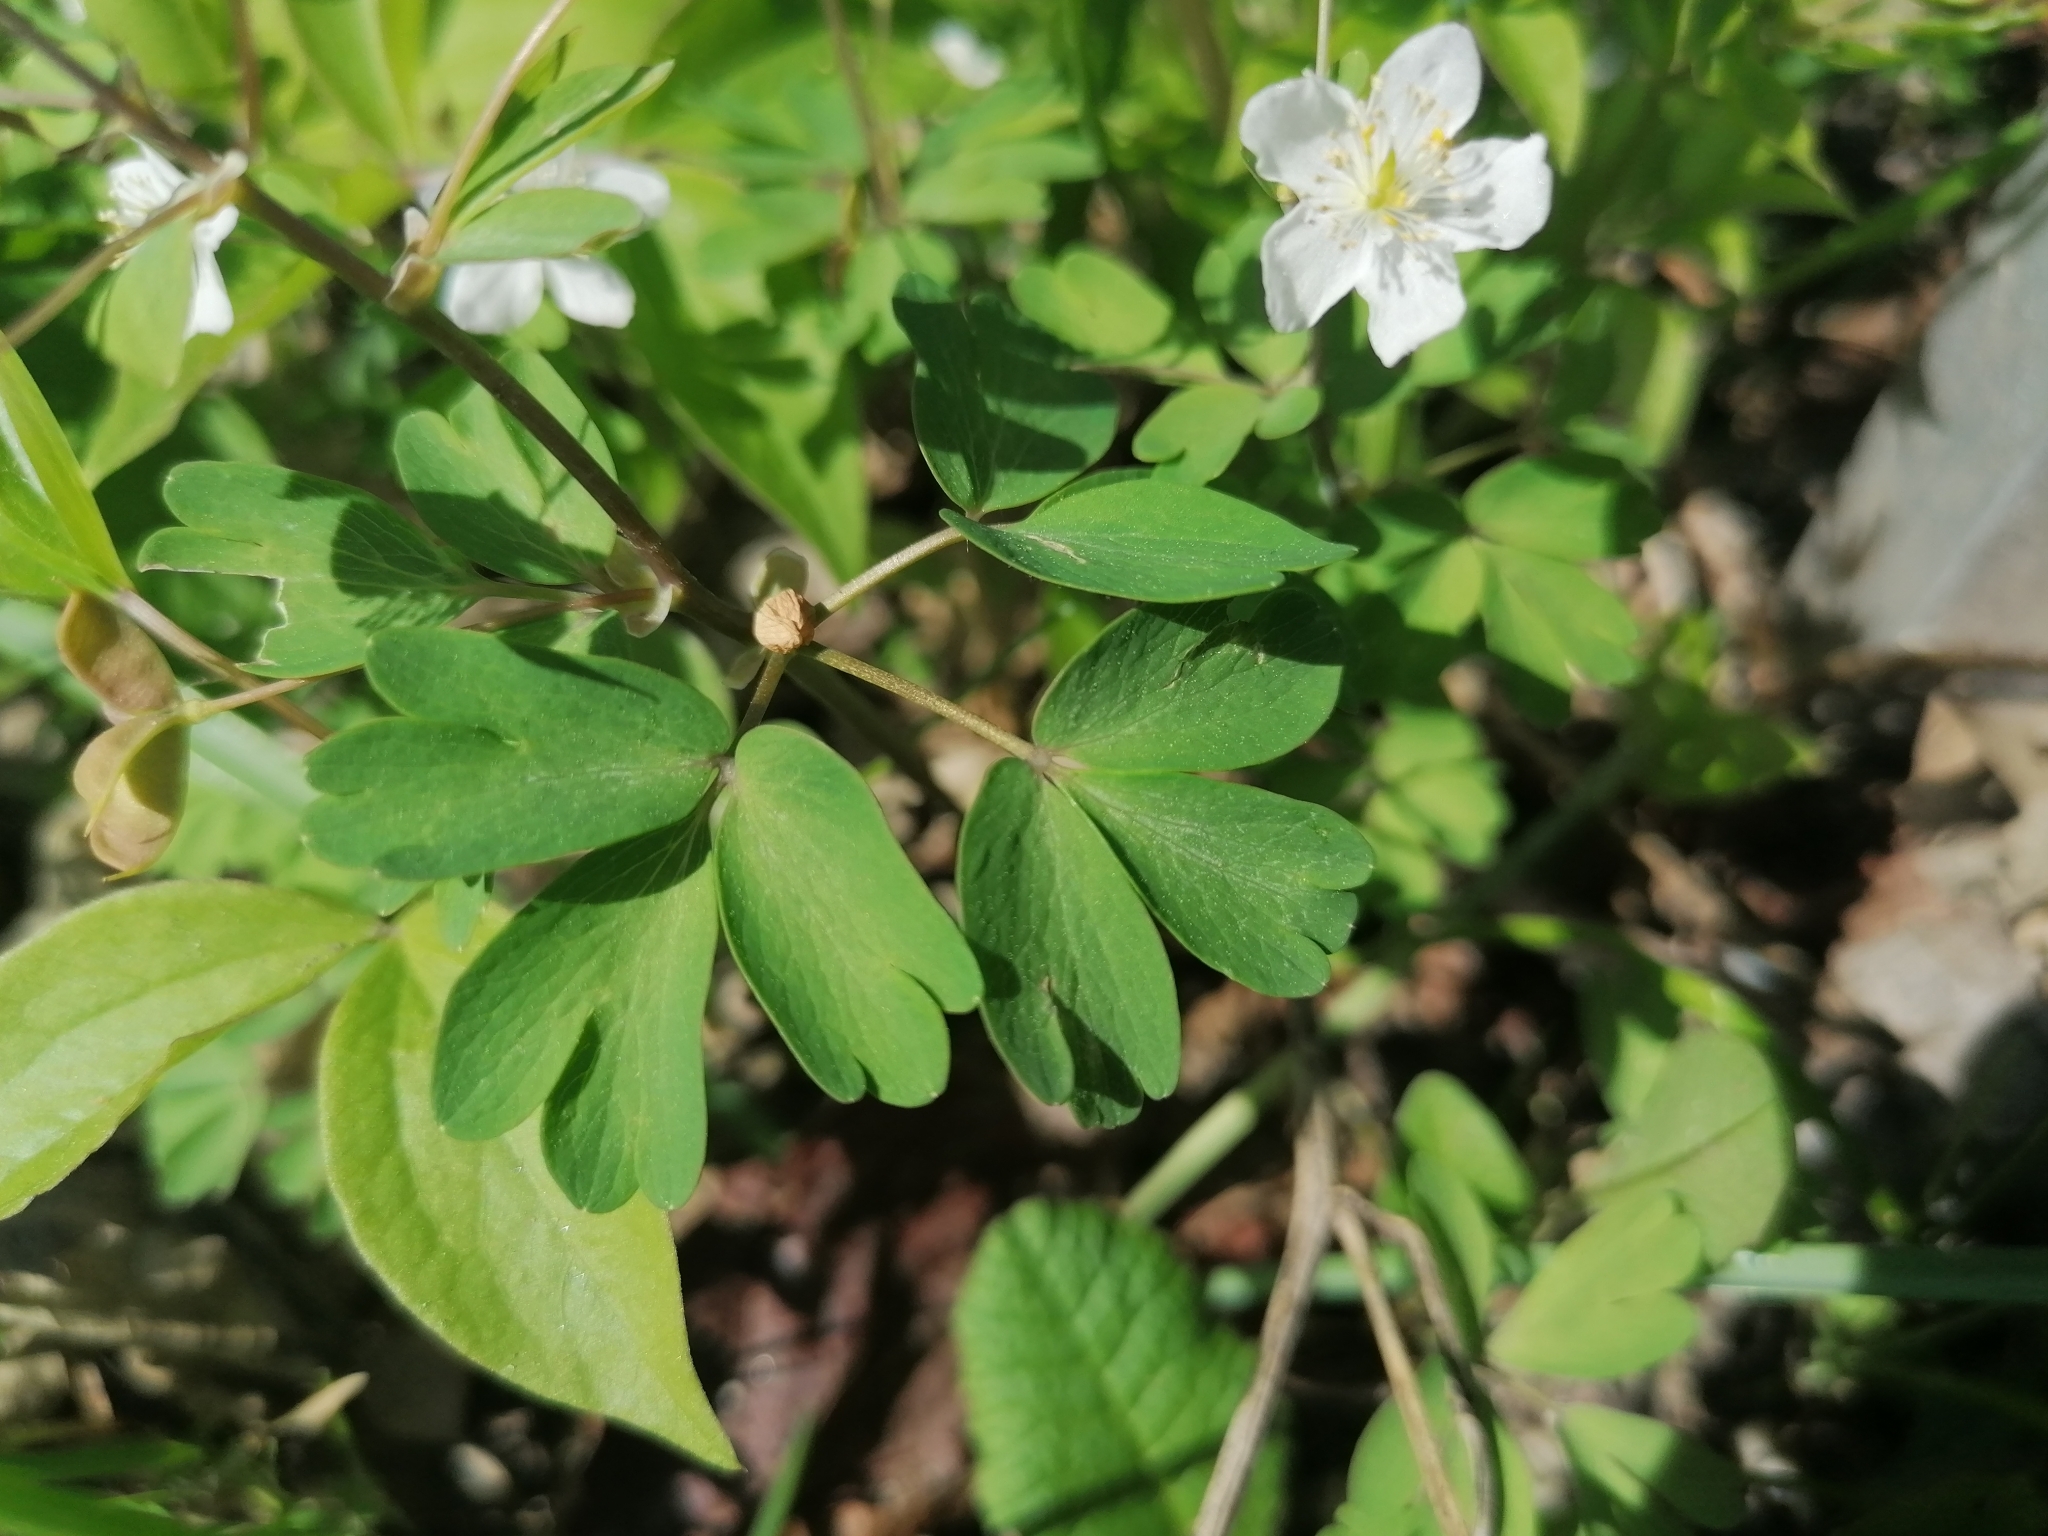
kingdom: Plantae
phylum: Tracheophyta
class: Magnoliopsida
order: Ranunculales
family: Ranunculaceae
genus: Isopyrum
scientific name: Isopyrum thalictroides
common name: Isopyrum
